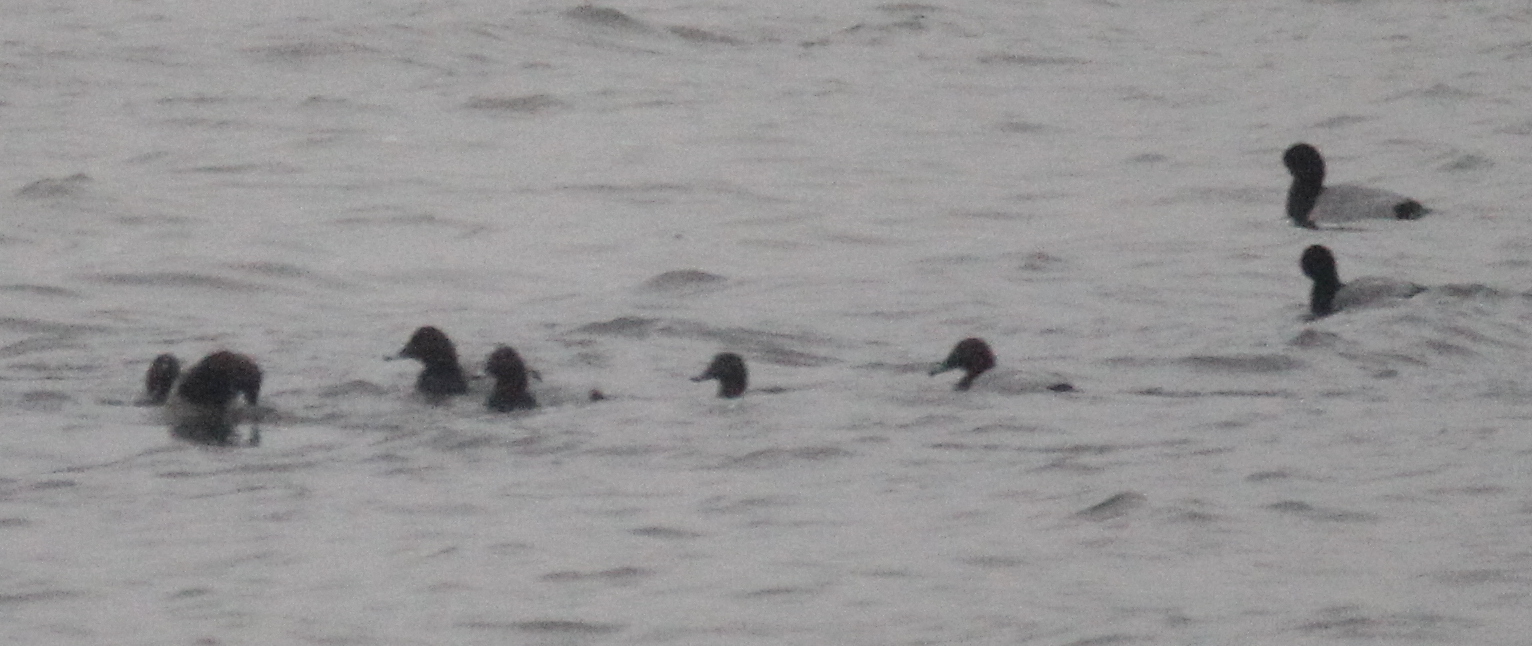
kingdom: Animalia
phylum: Chordata
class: Aves
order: Anseriformes
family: Anatidae
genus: Aythya
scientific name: Aythya ferina
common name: Common pochard
